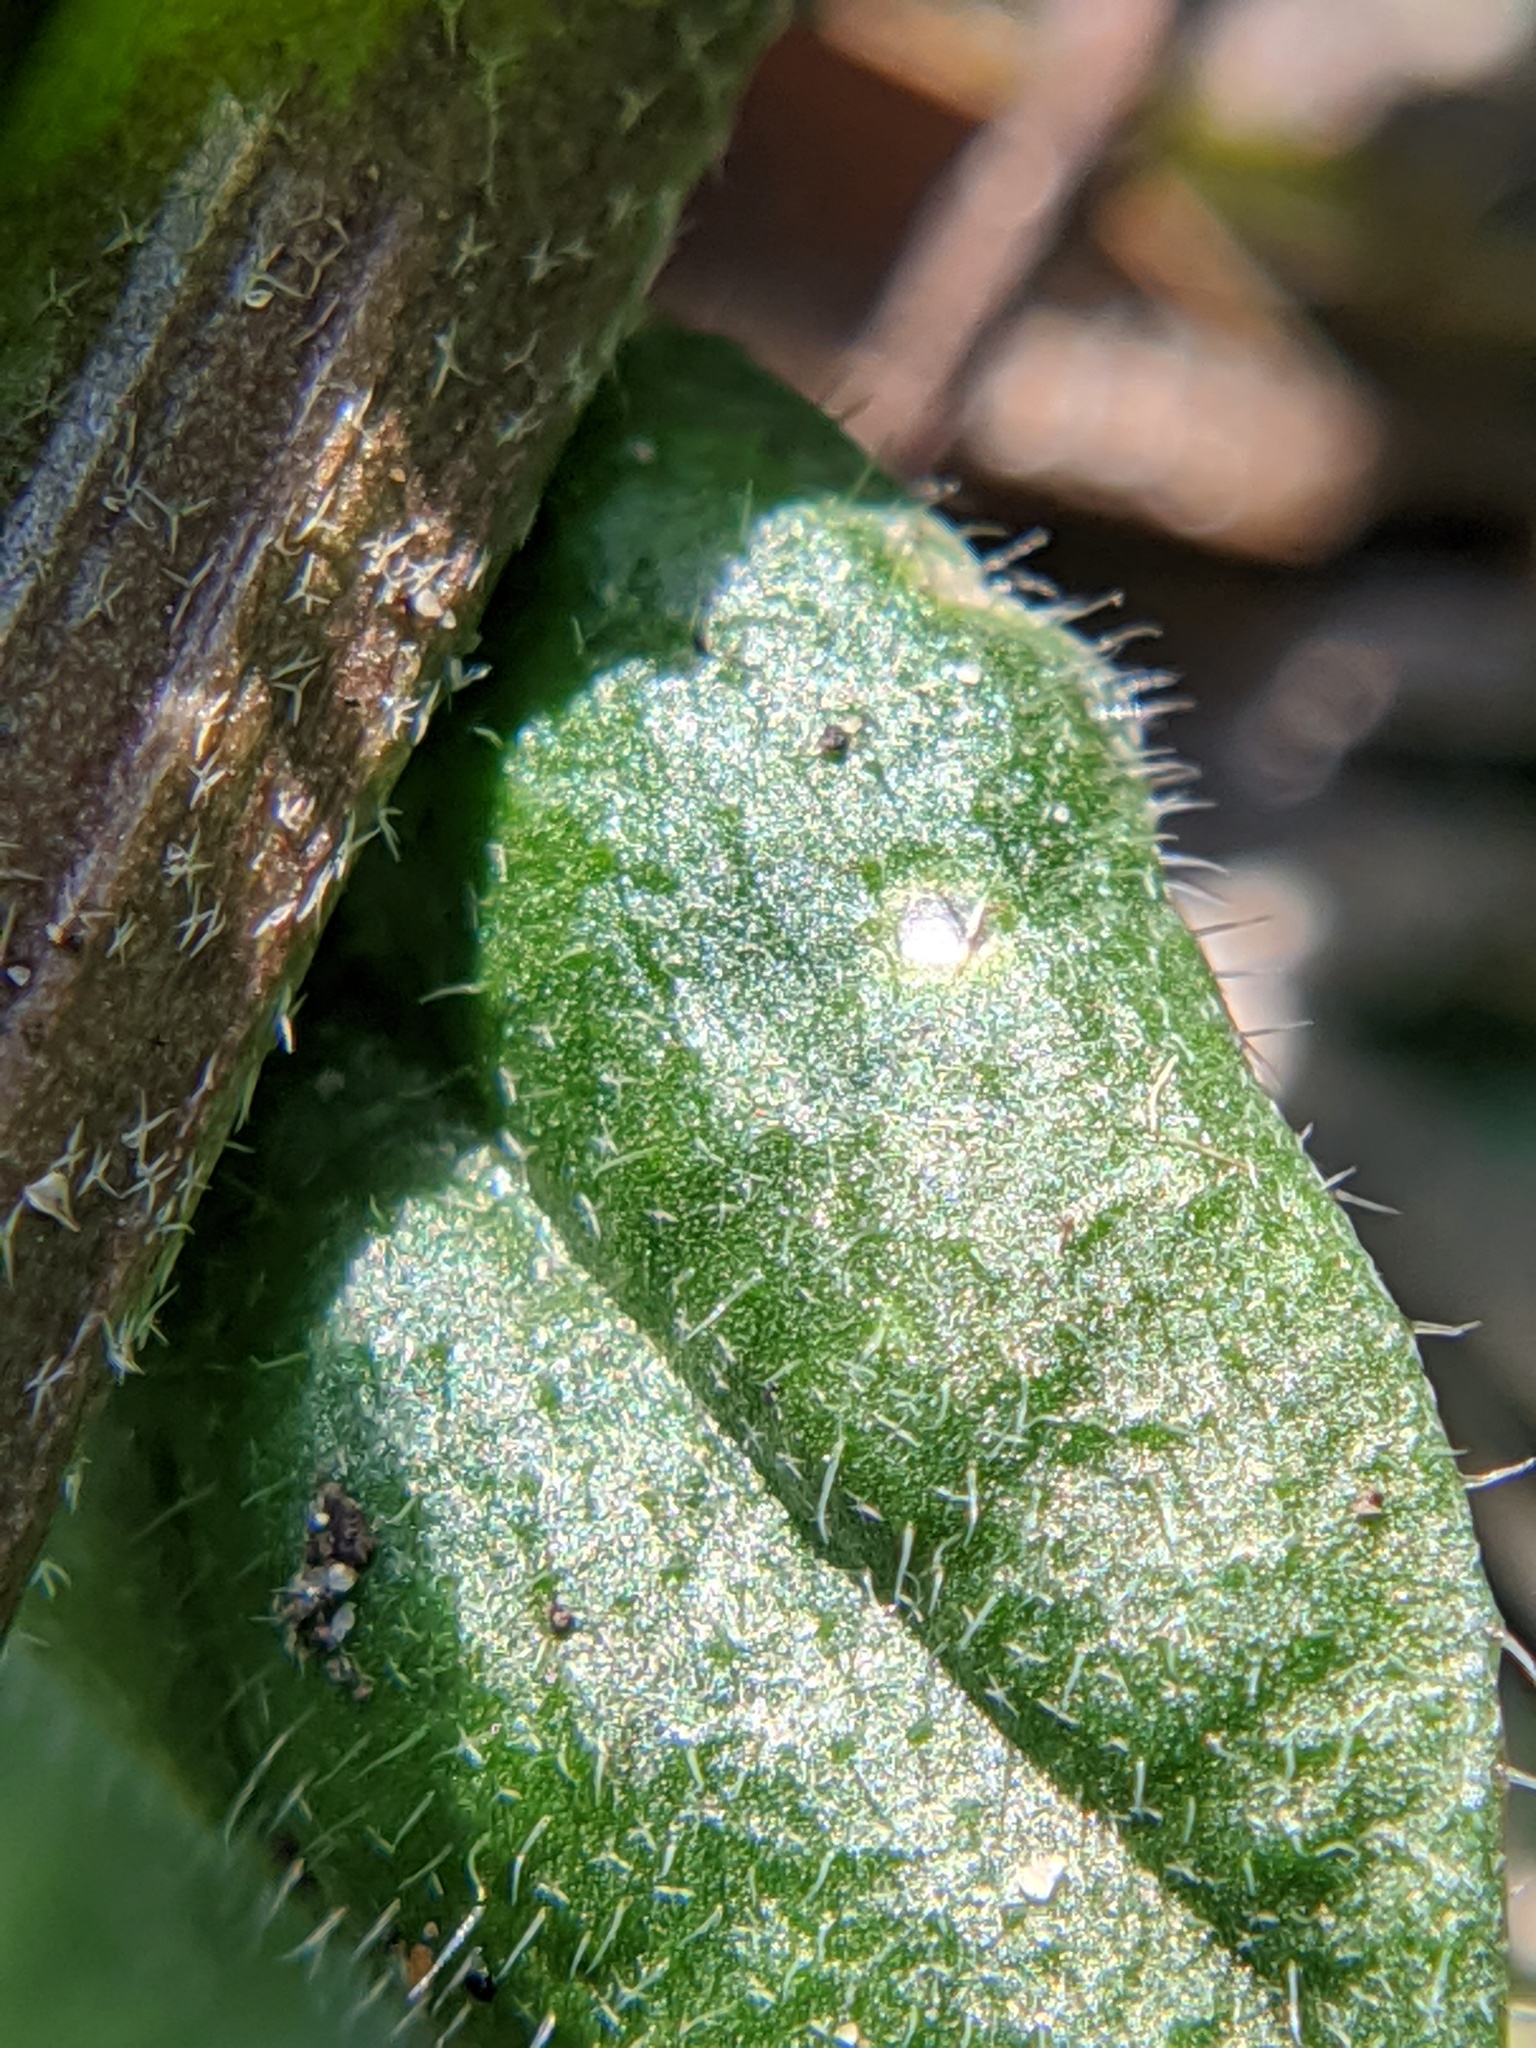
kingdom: Plantae
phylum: Tracheophyta
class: Magnoliopsida
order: Brassicales
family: Brassicaceae
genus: Capsella
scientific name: Capsella bursa-pastoris
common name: Shepherd's purse
